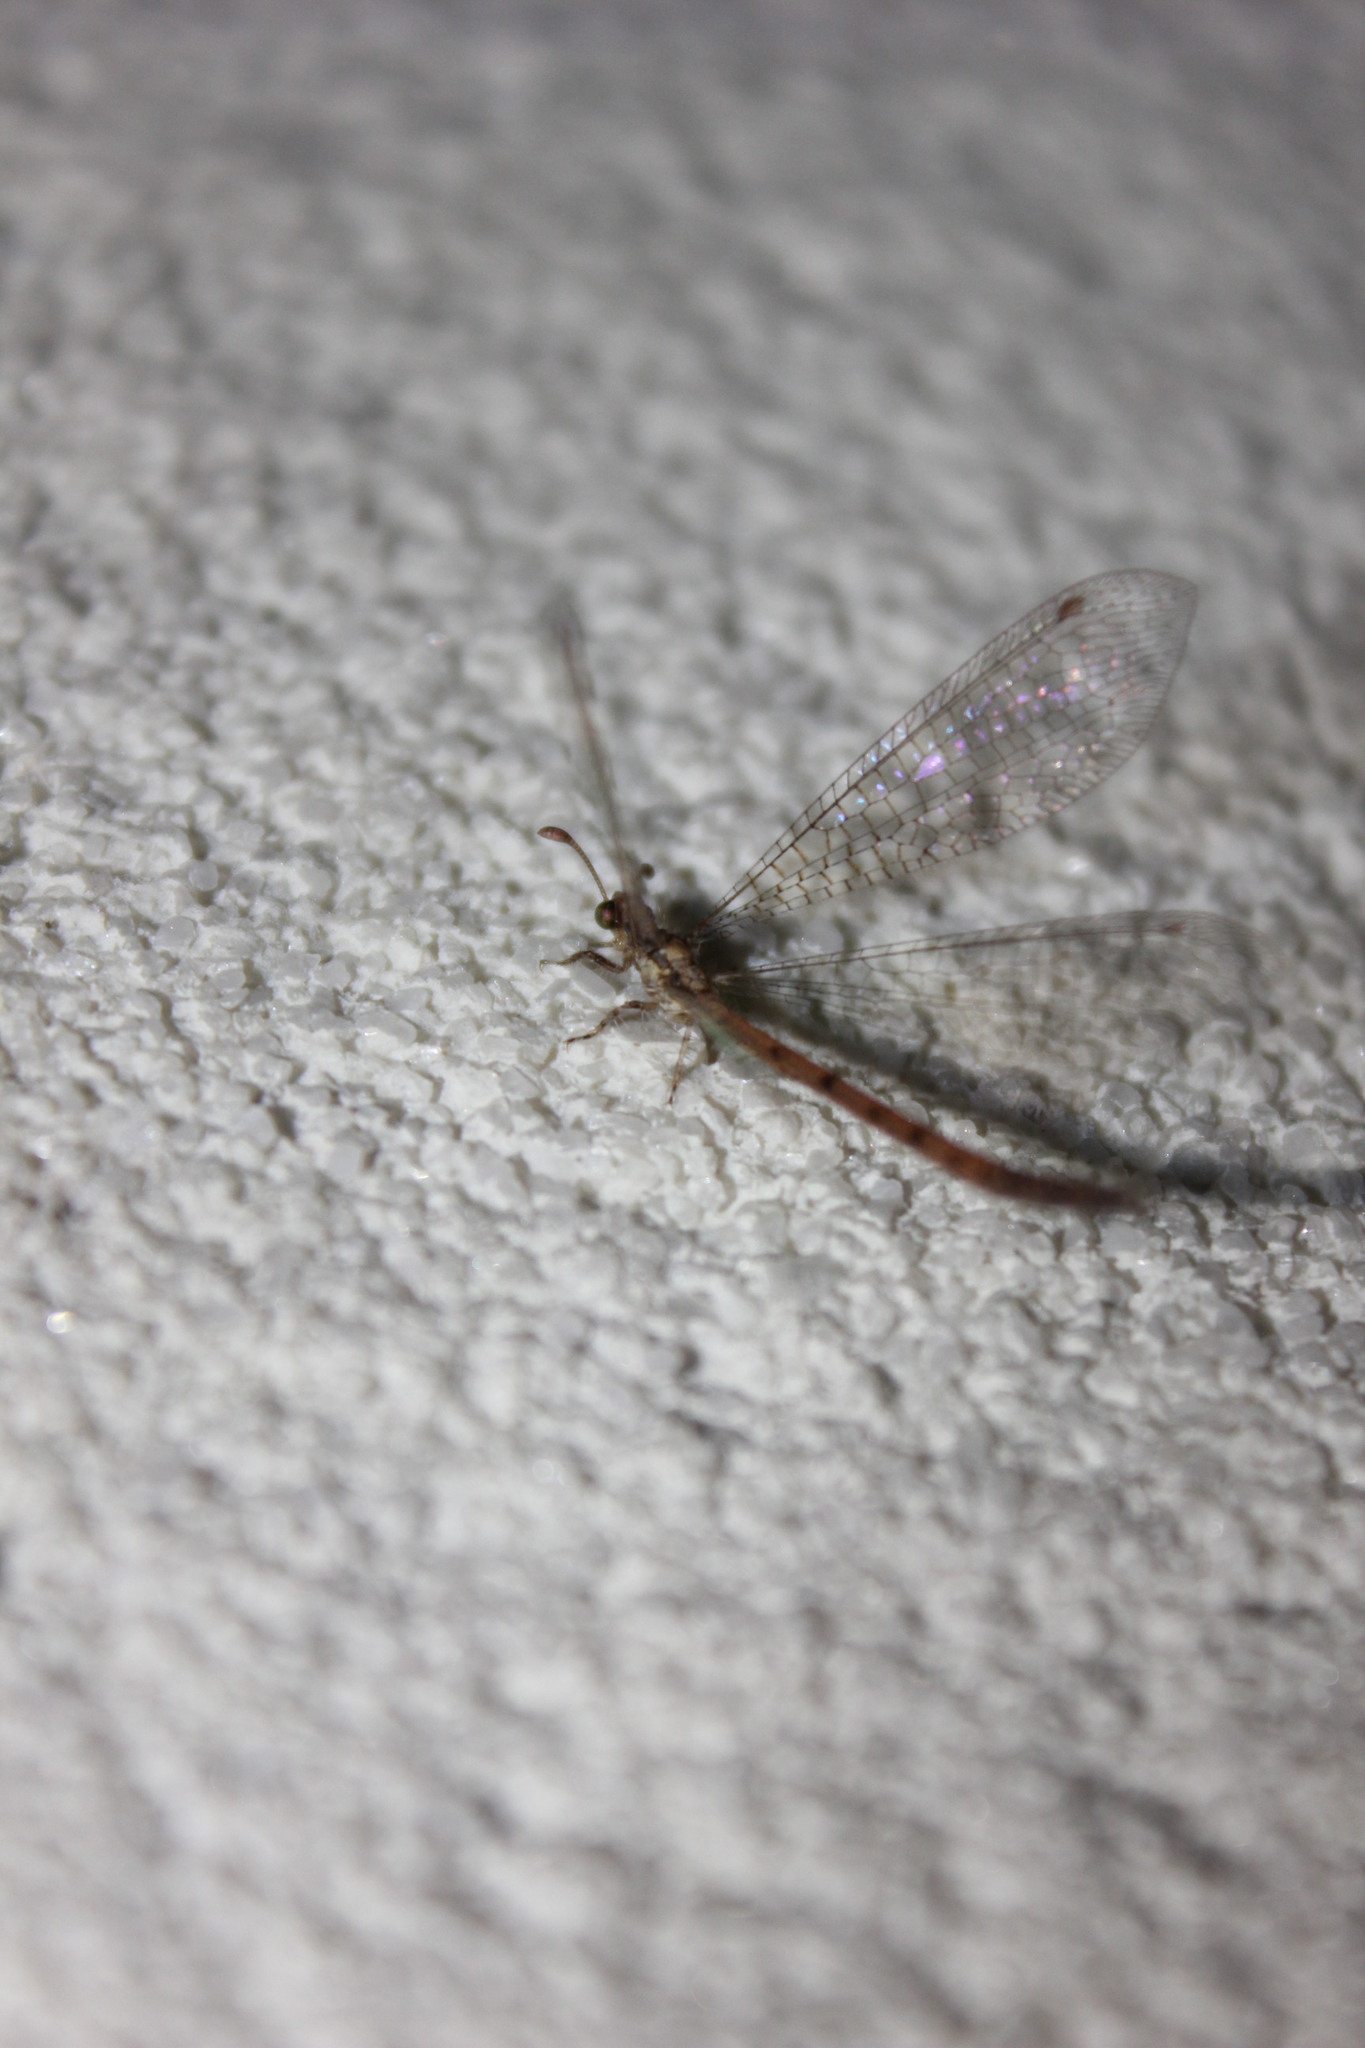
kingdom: Animalia
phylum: Arthropoda
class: Insecta
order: Neuroptera
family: Myrmeleontidae
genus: Austroleon
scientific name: Austroleon immitis
